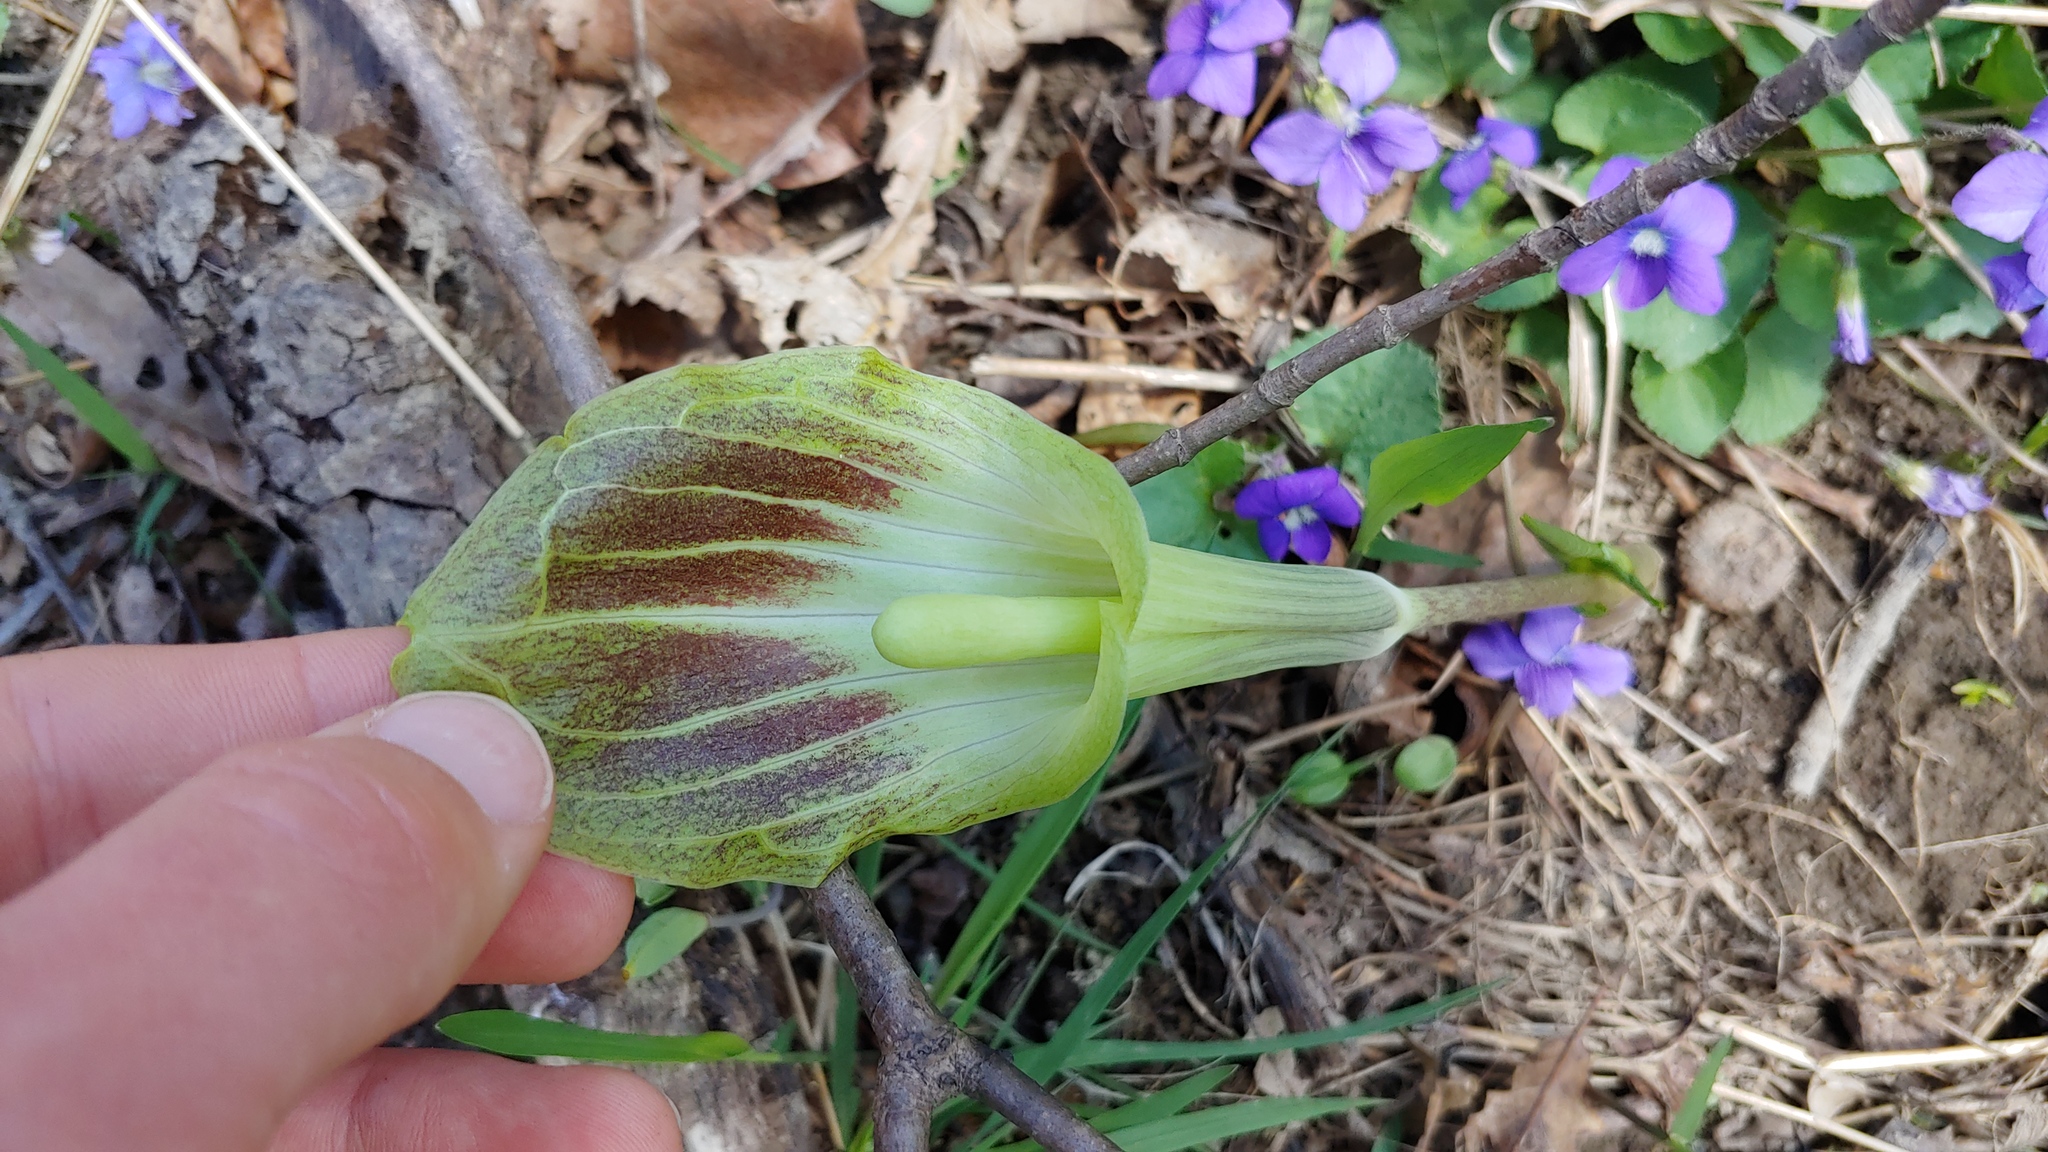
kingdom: Plantae
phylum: Tracheophyta
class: Liliopsida
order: Alismatales
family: Araceae
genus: Arisaema
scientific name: Arisaema triphyllum
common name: Jack-in-the-pulpit
